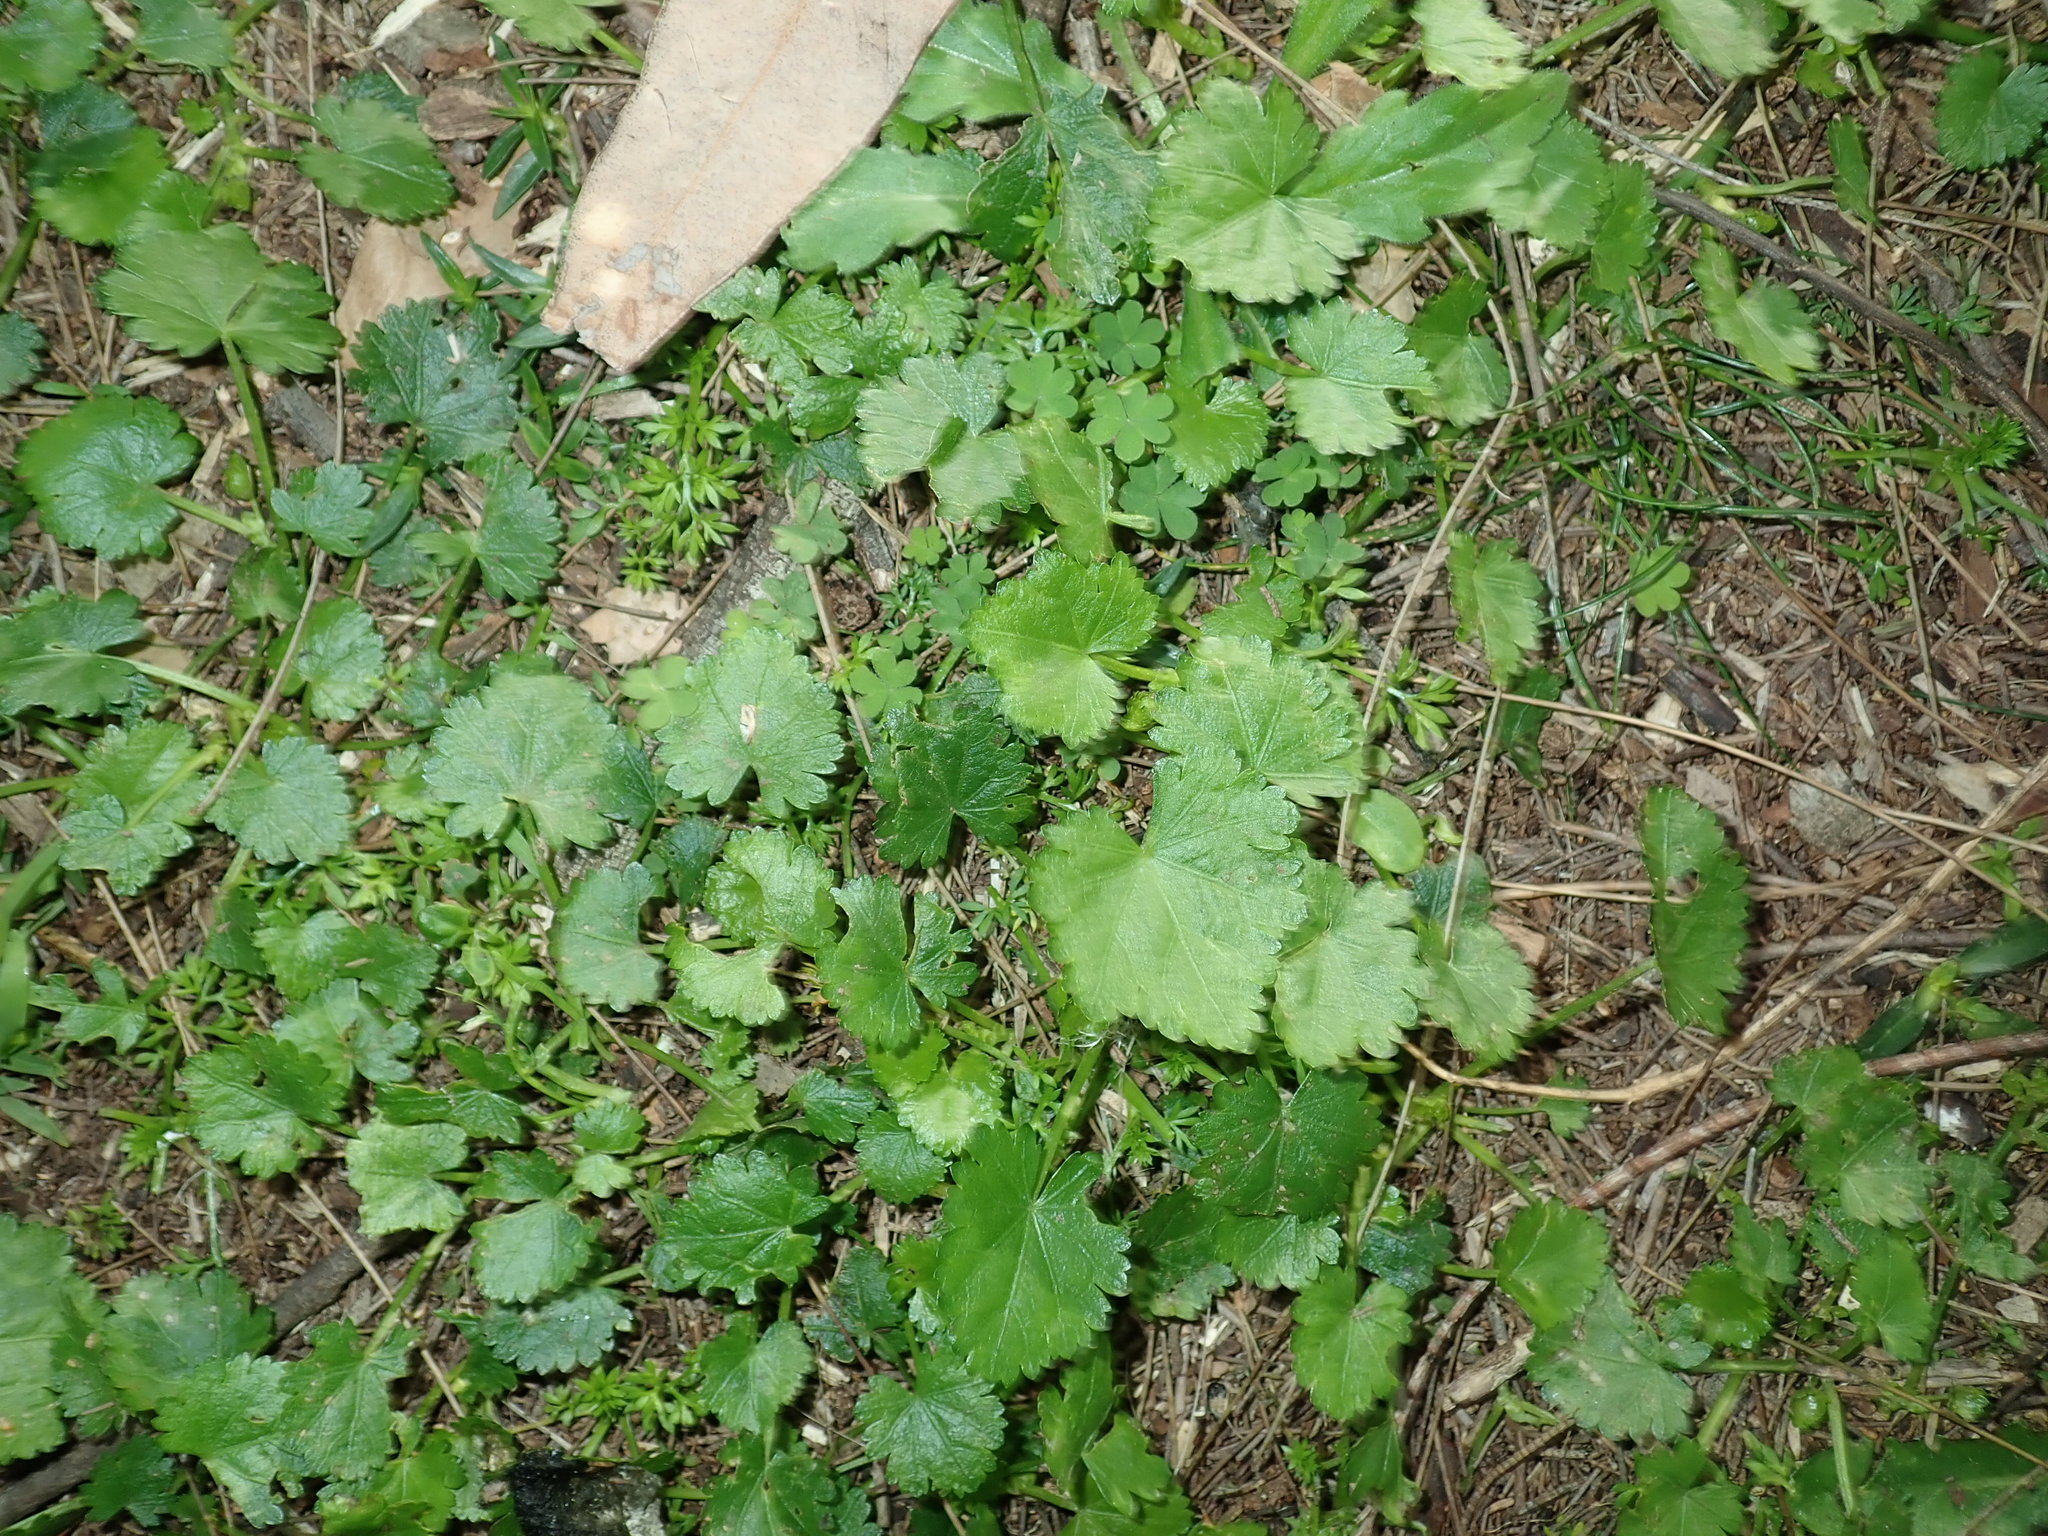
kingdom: Plantae
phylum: Tracheophyta
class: Magnoliopsida
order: Malvales
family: Malvaceae
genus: Modiola
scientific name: Modiola caroliniana
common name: Carolina bristlemallow
